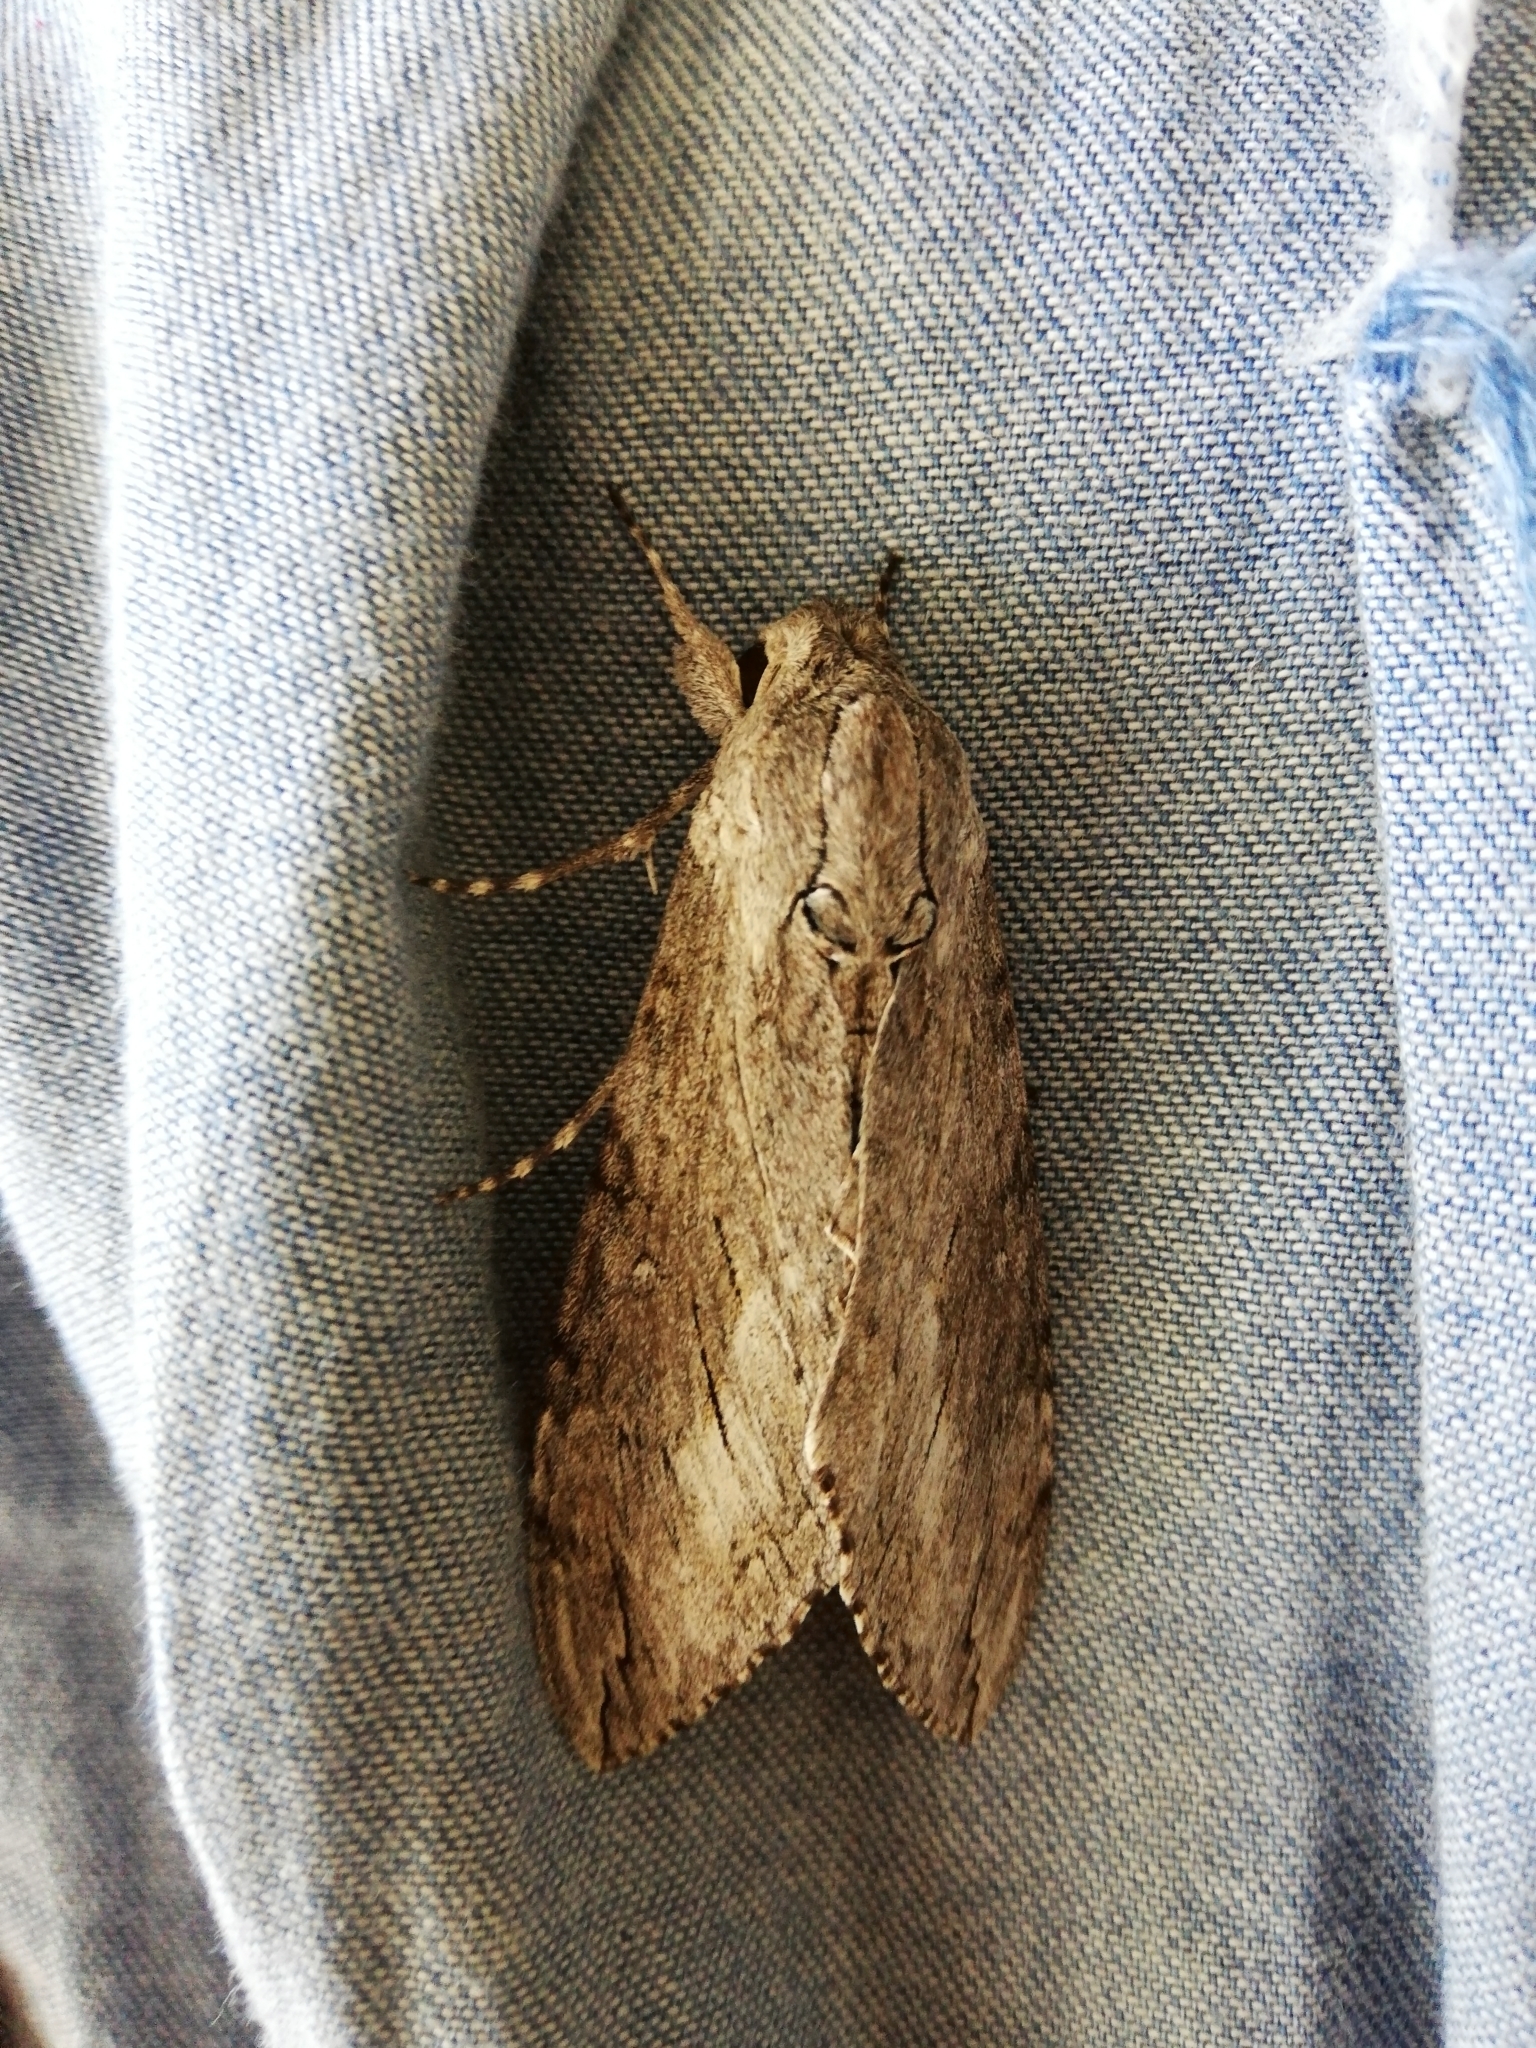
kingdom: Animalia
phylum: Arthropoda
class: Insecta
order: Lepidoptera
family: Sphingidae
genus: Agrius
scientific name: Agrius convolvuli
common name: Convolvulus hawkmoth
